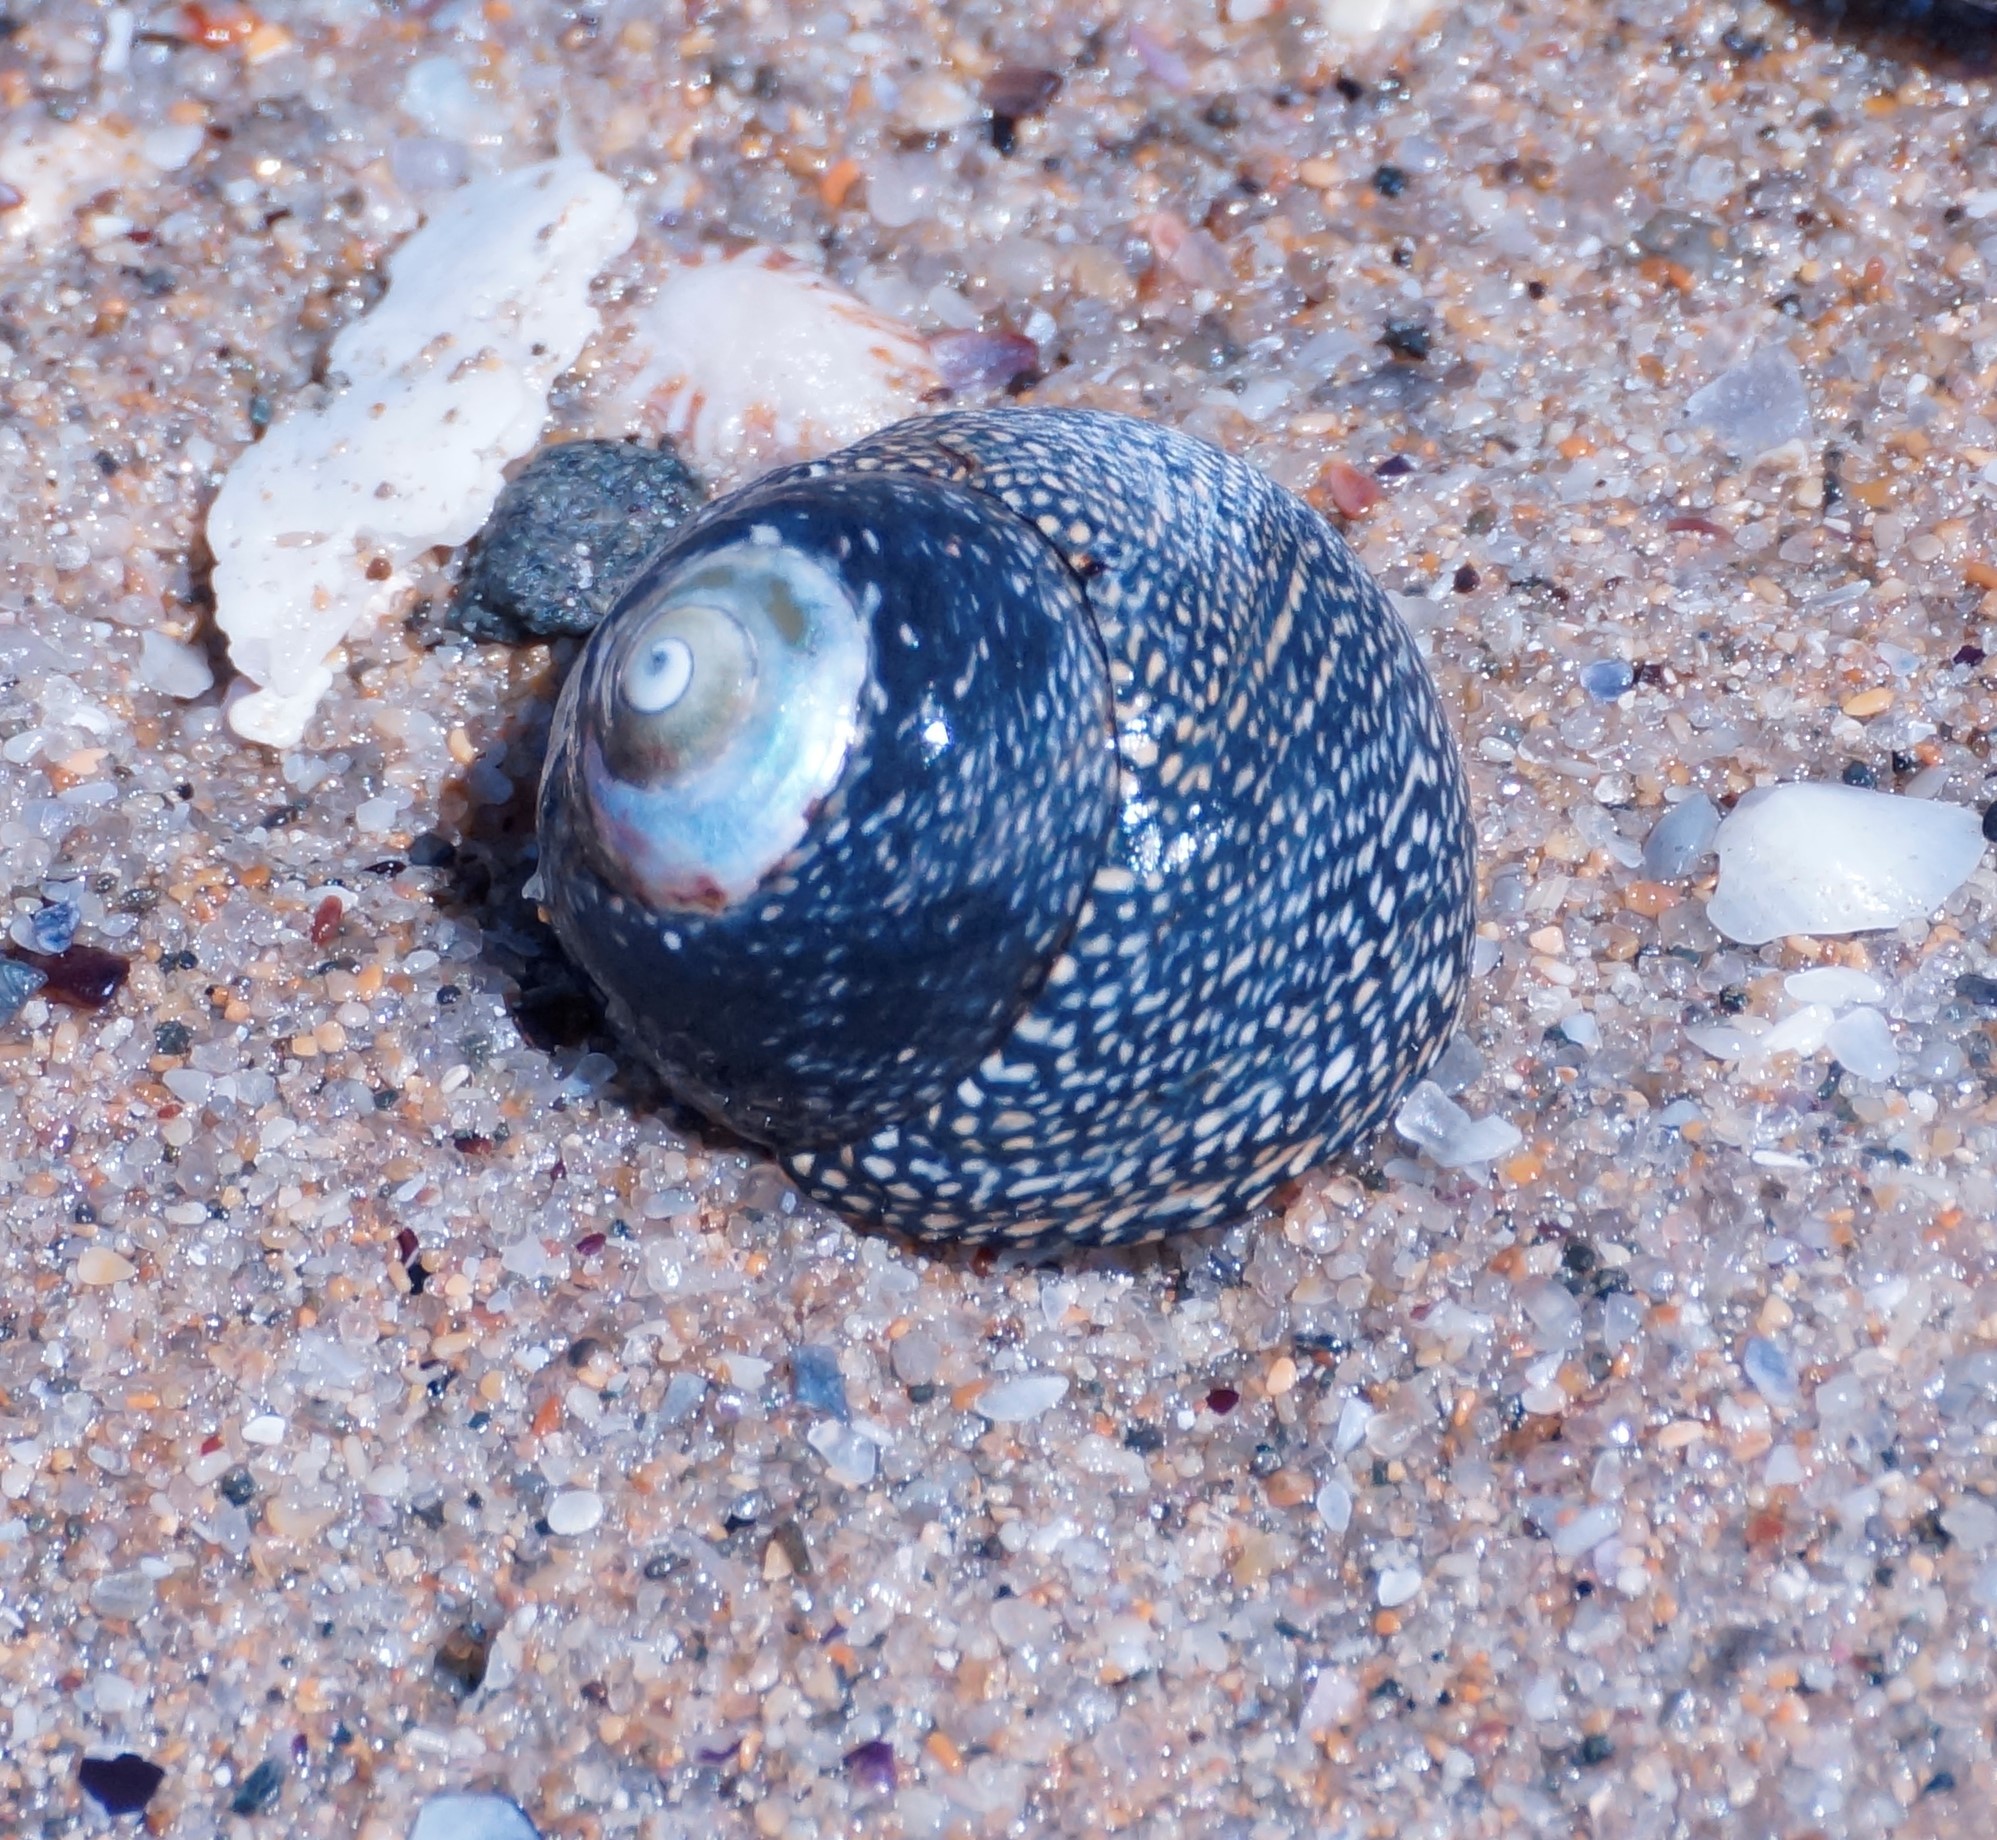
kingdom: Animalia
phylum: Mollusca
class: Gastropoda
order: Trochida
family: Trochidae
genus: Chlorodiloma
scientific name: Chlorodiloma odontis
